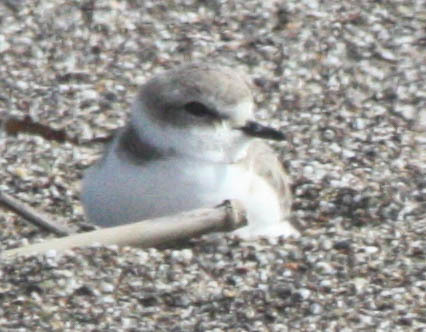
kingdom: Animalia
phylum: Chordata
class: Aves
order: Charadriiformes
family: Charadriidae
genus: Anarhynchus
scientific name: Anarhynchus
